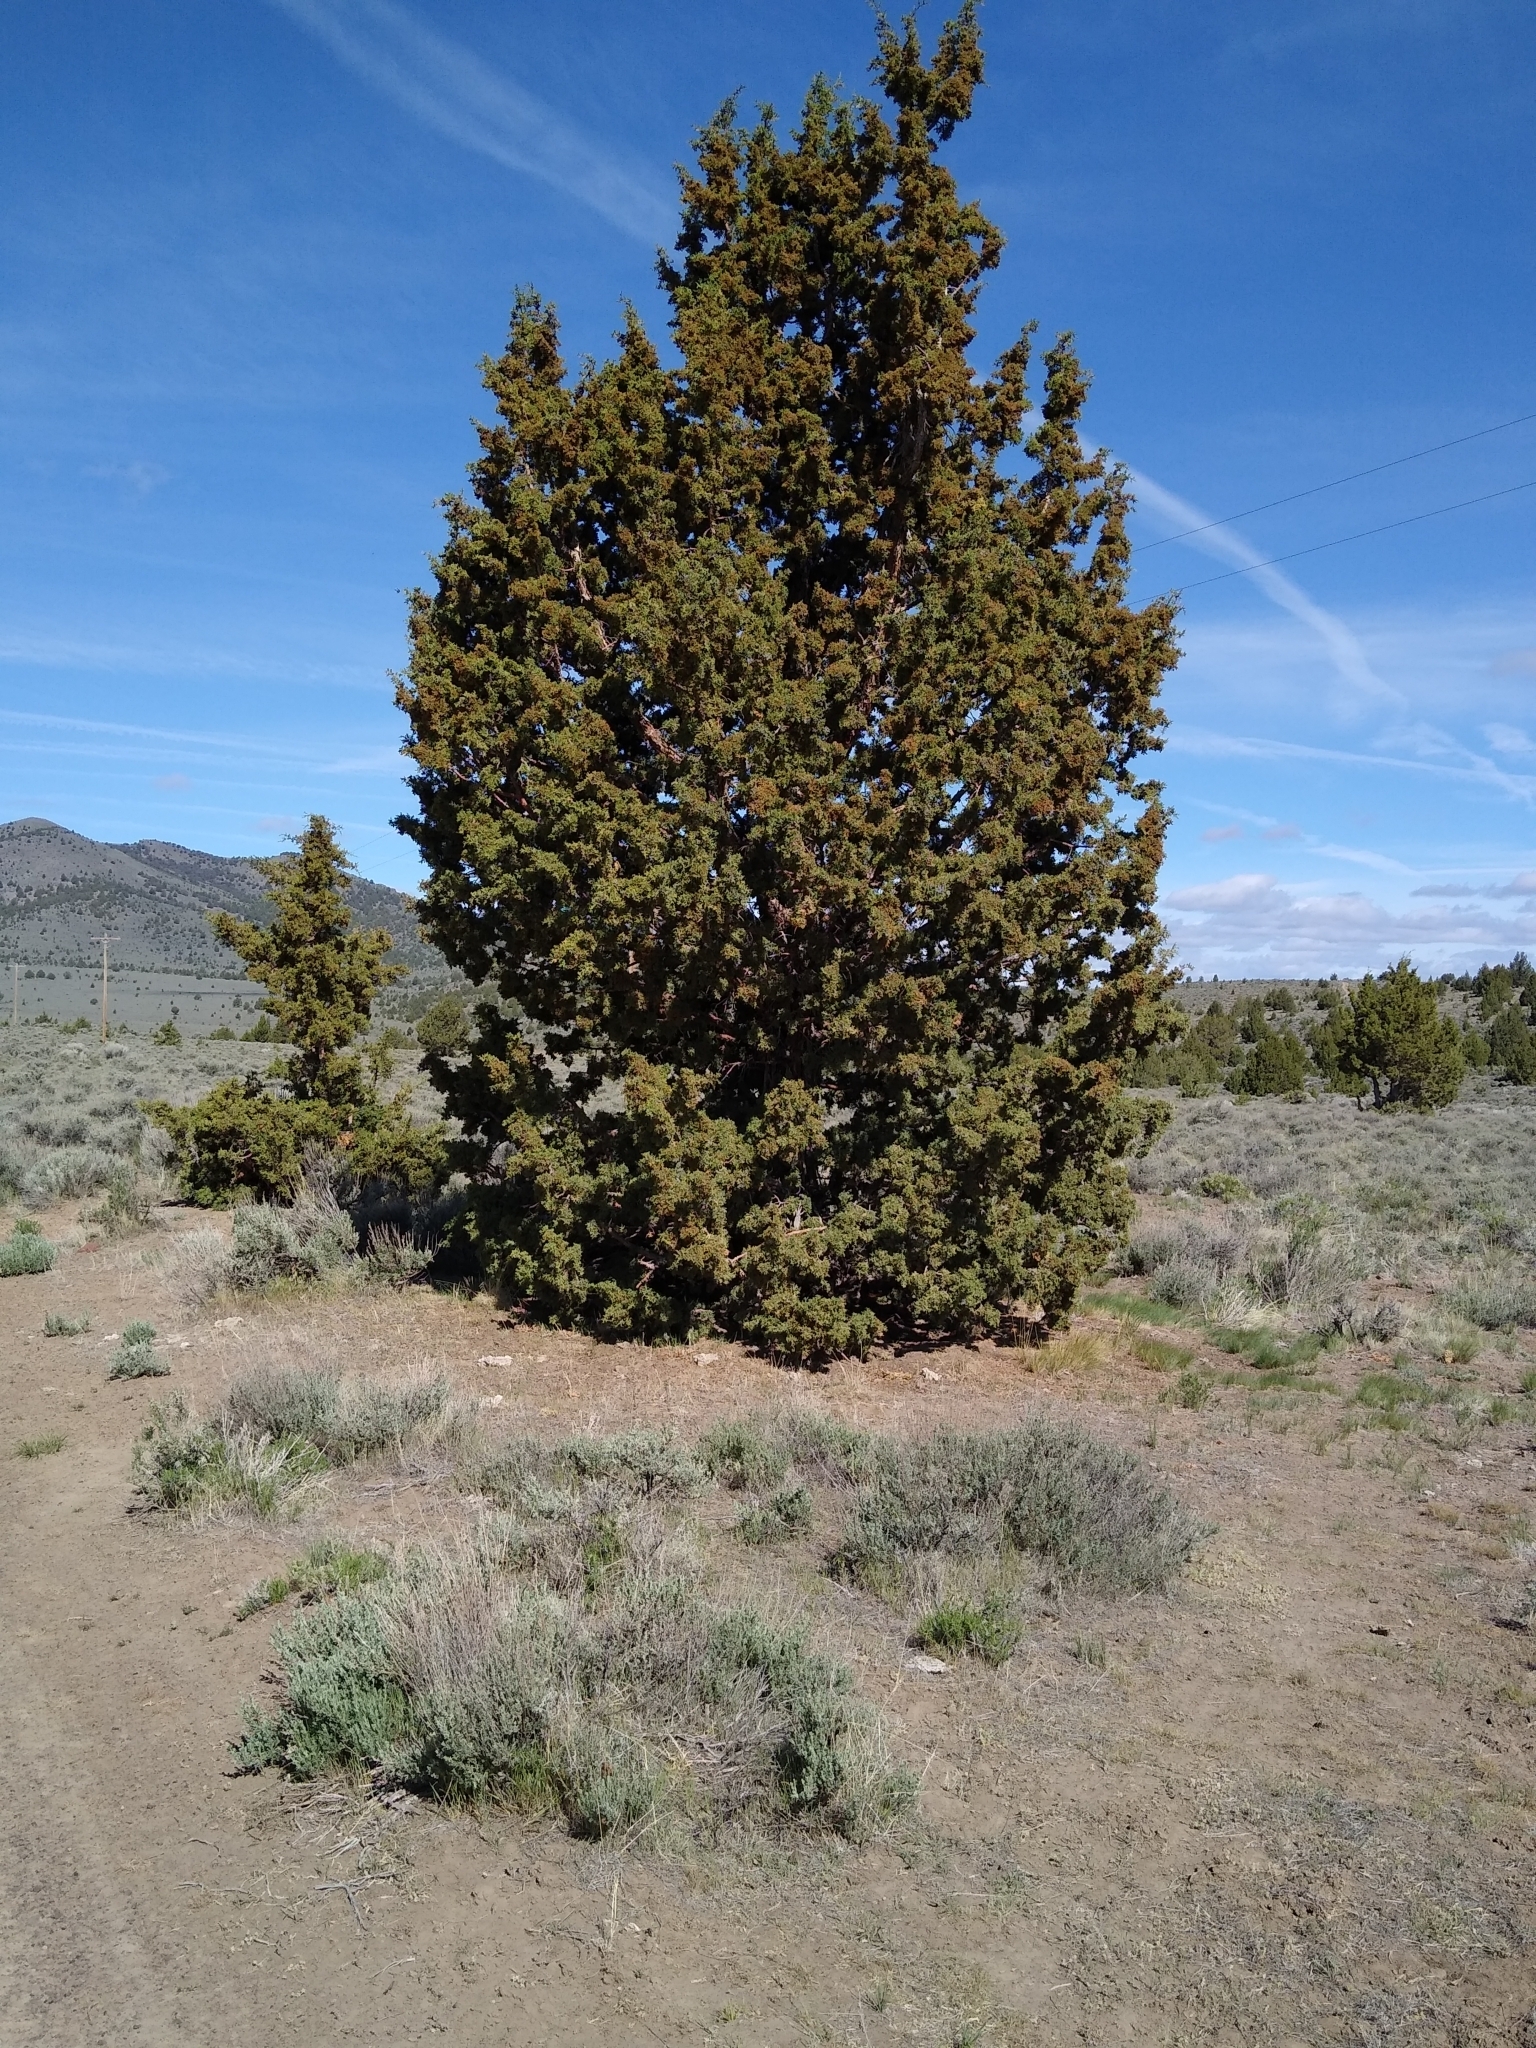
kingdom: Plantae
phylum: Tracheophyta
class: Pinopsida
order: Pinales
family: Cupressaceae
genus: Juniperus
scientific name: Juniperus occidentalis
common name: Western juniper
